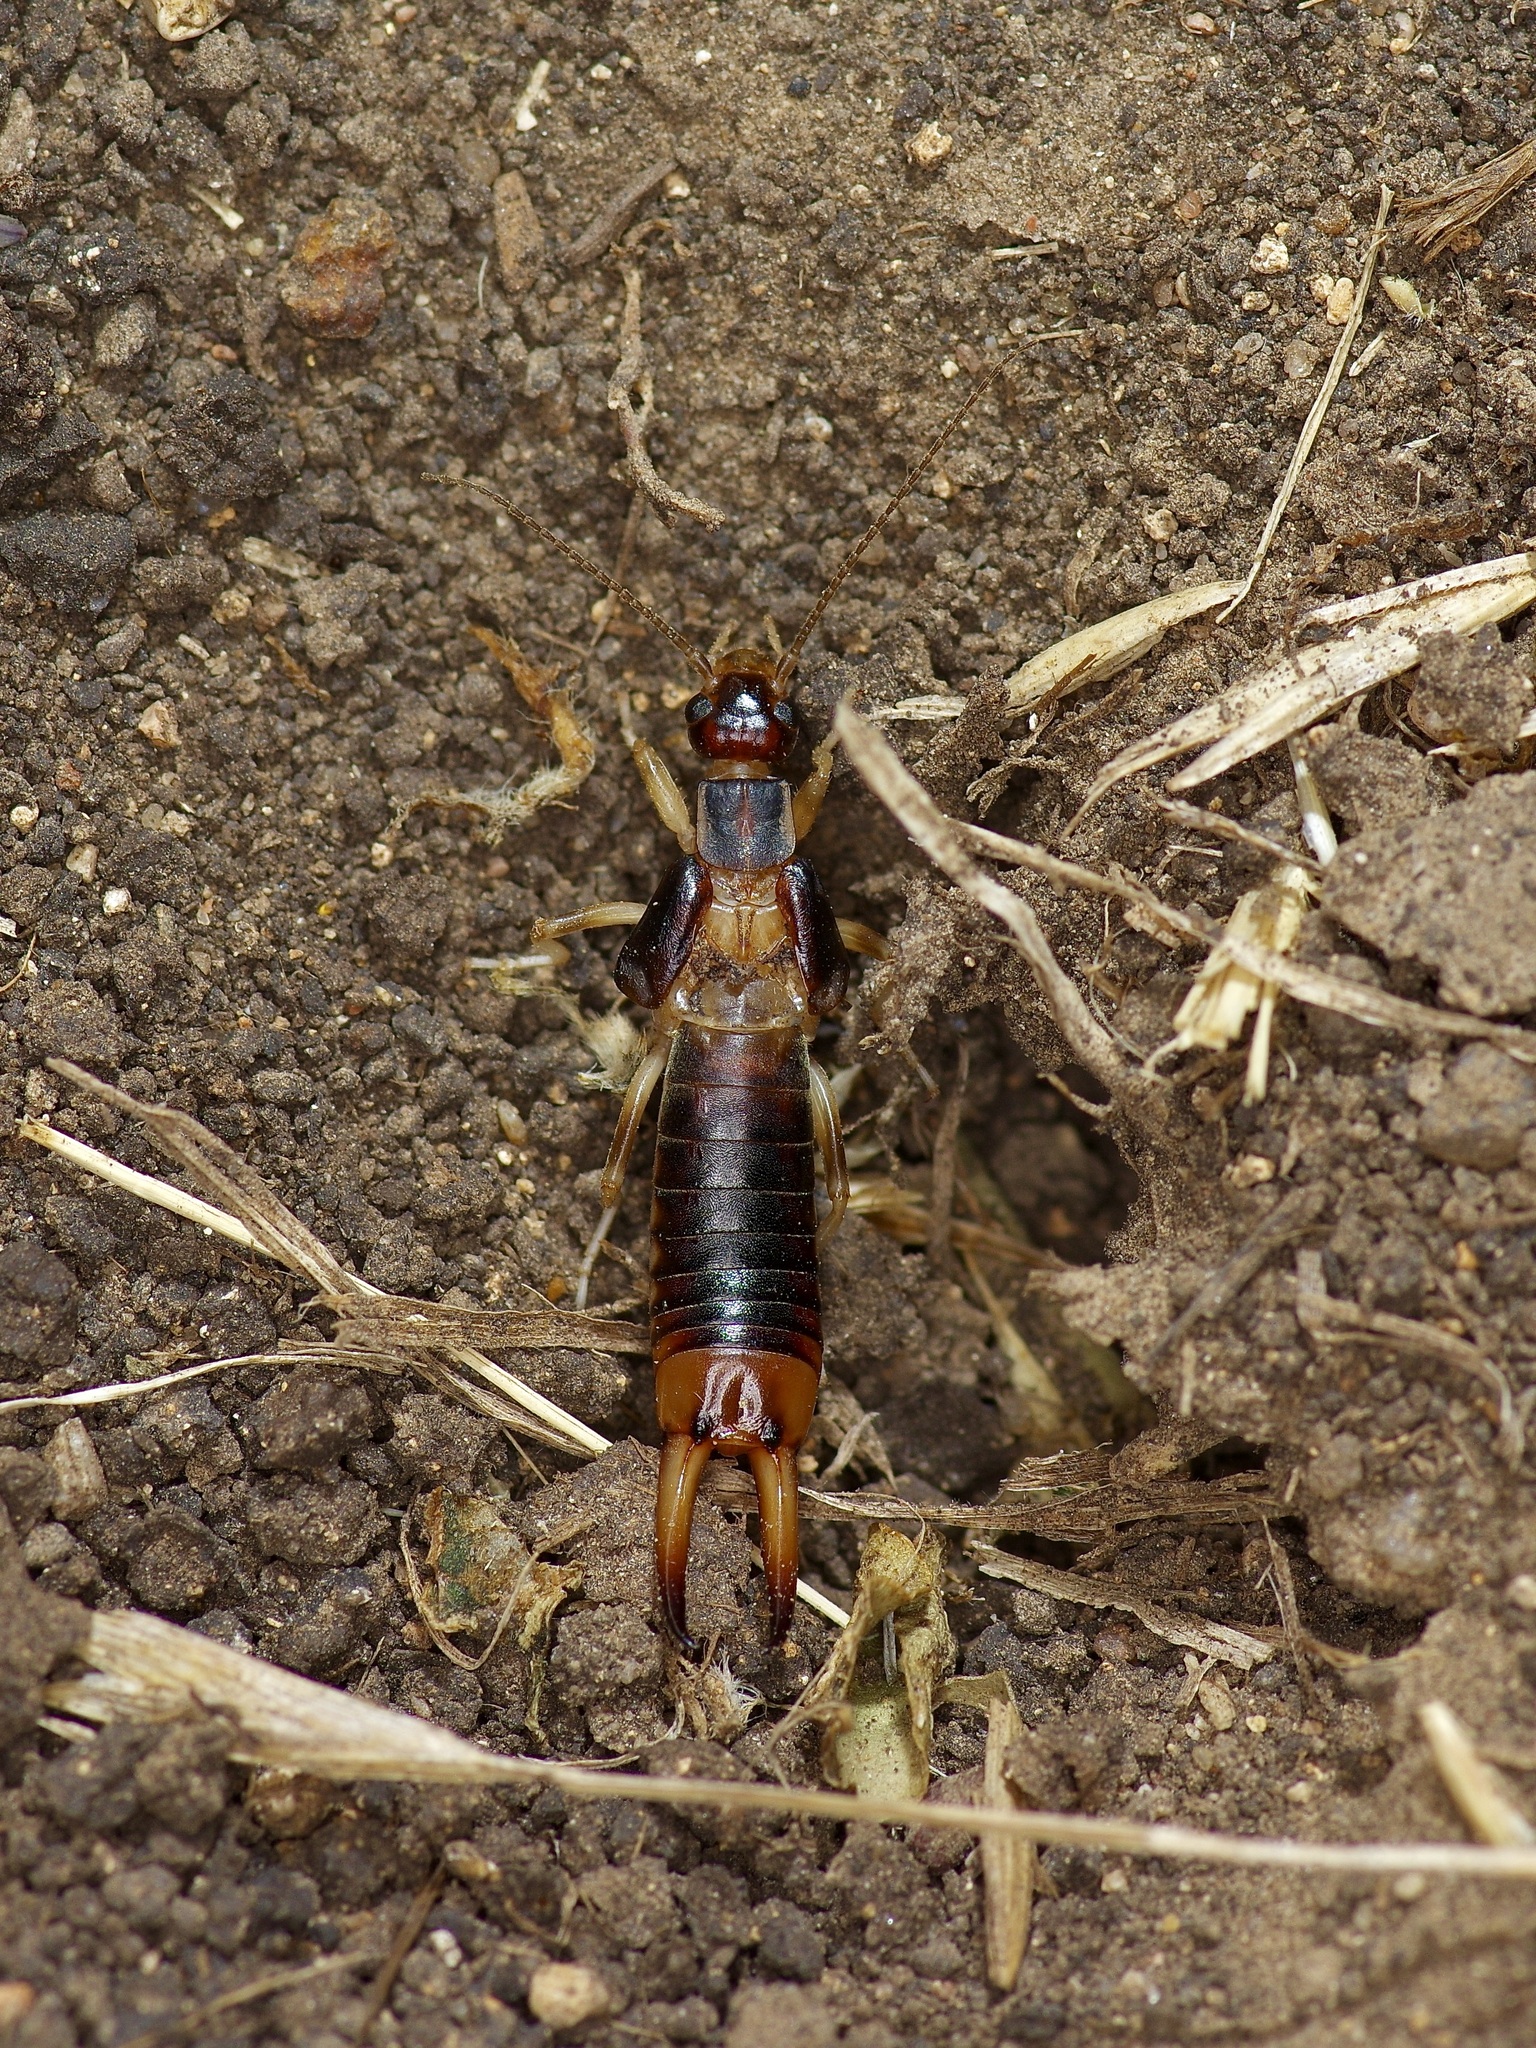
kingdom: Animalia
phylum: Arthropoda
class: Insecta
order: Dermaptera
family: Labiduridae
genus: Labidura
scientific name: Labidura riparia
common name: Striped earwig
